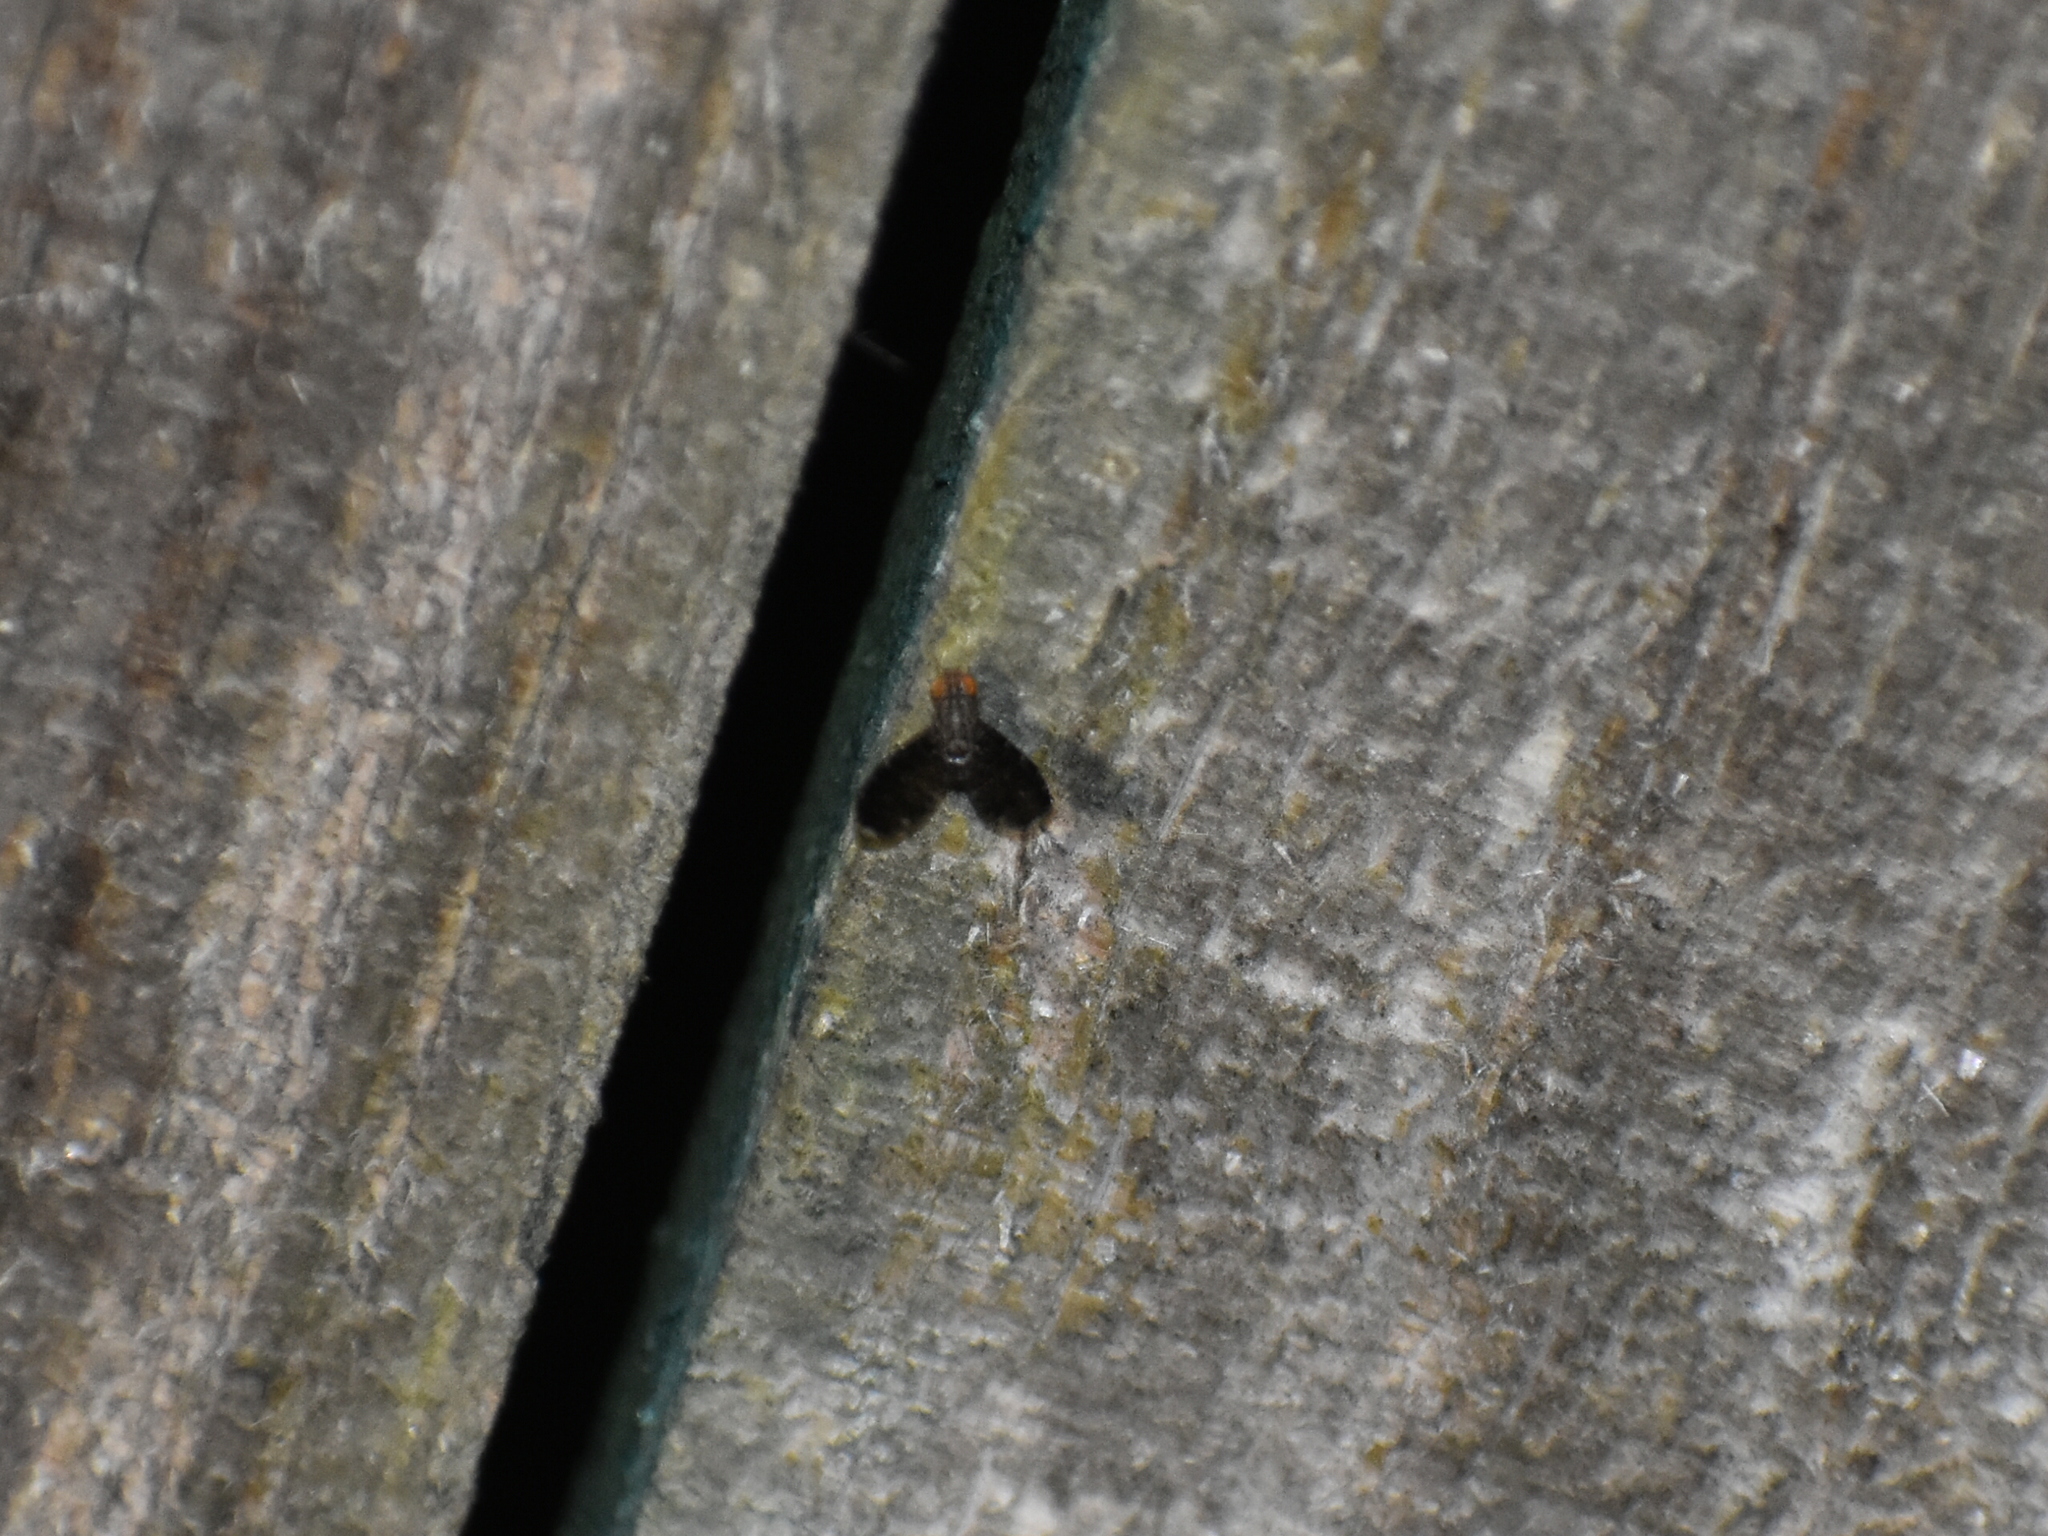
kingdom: Animalia
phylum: Arthropoda
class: Insecta
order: Diptera
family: Lauxaniidae
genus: Trypetisoma
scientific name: Trypetisoma sticticum
